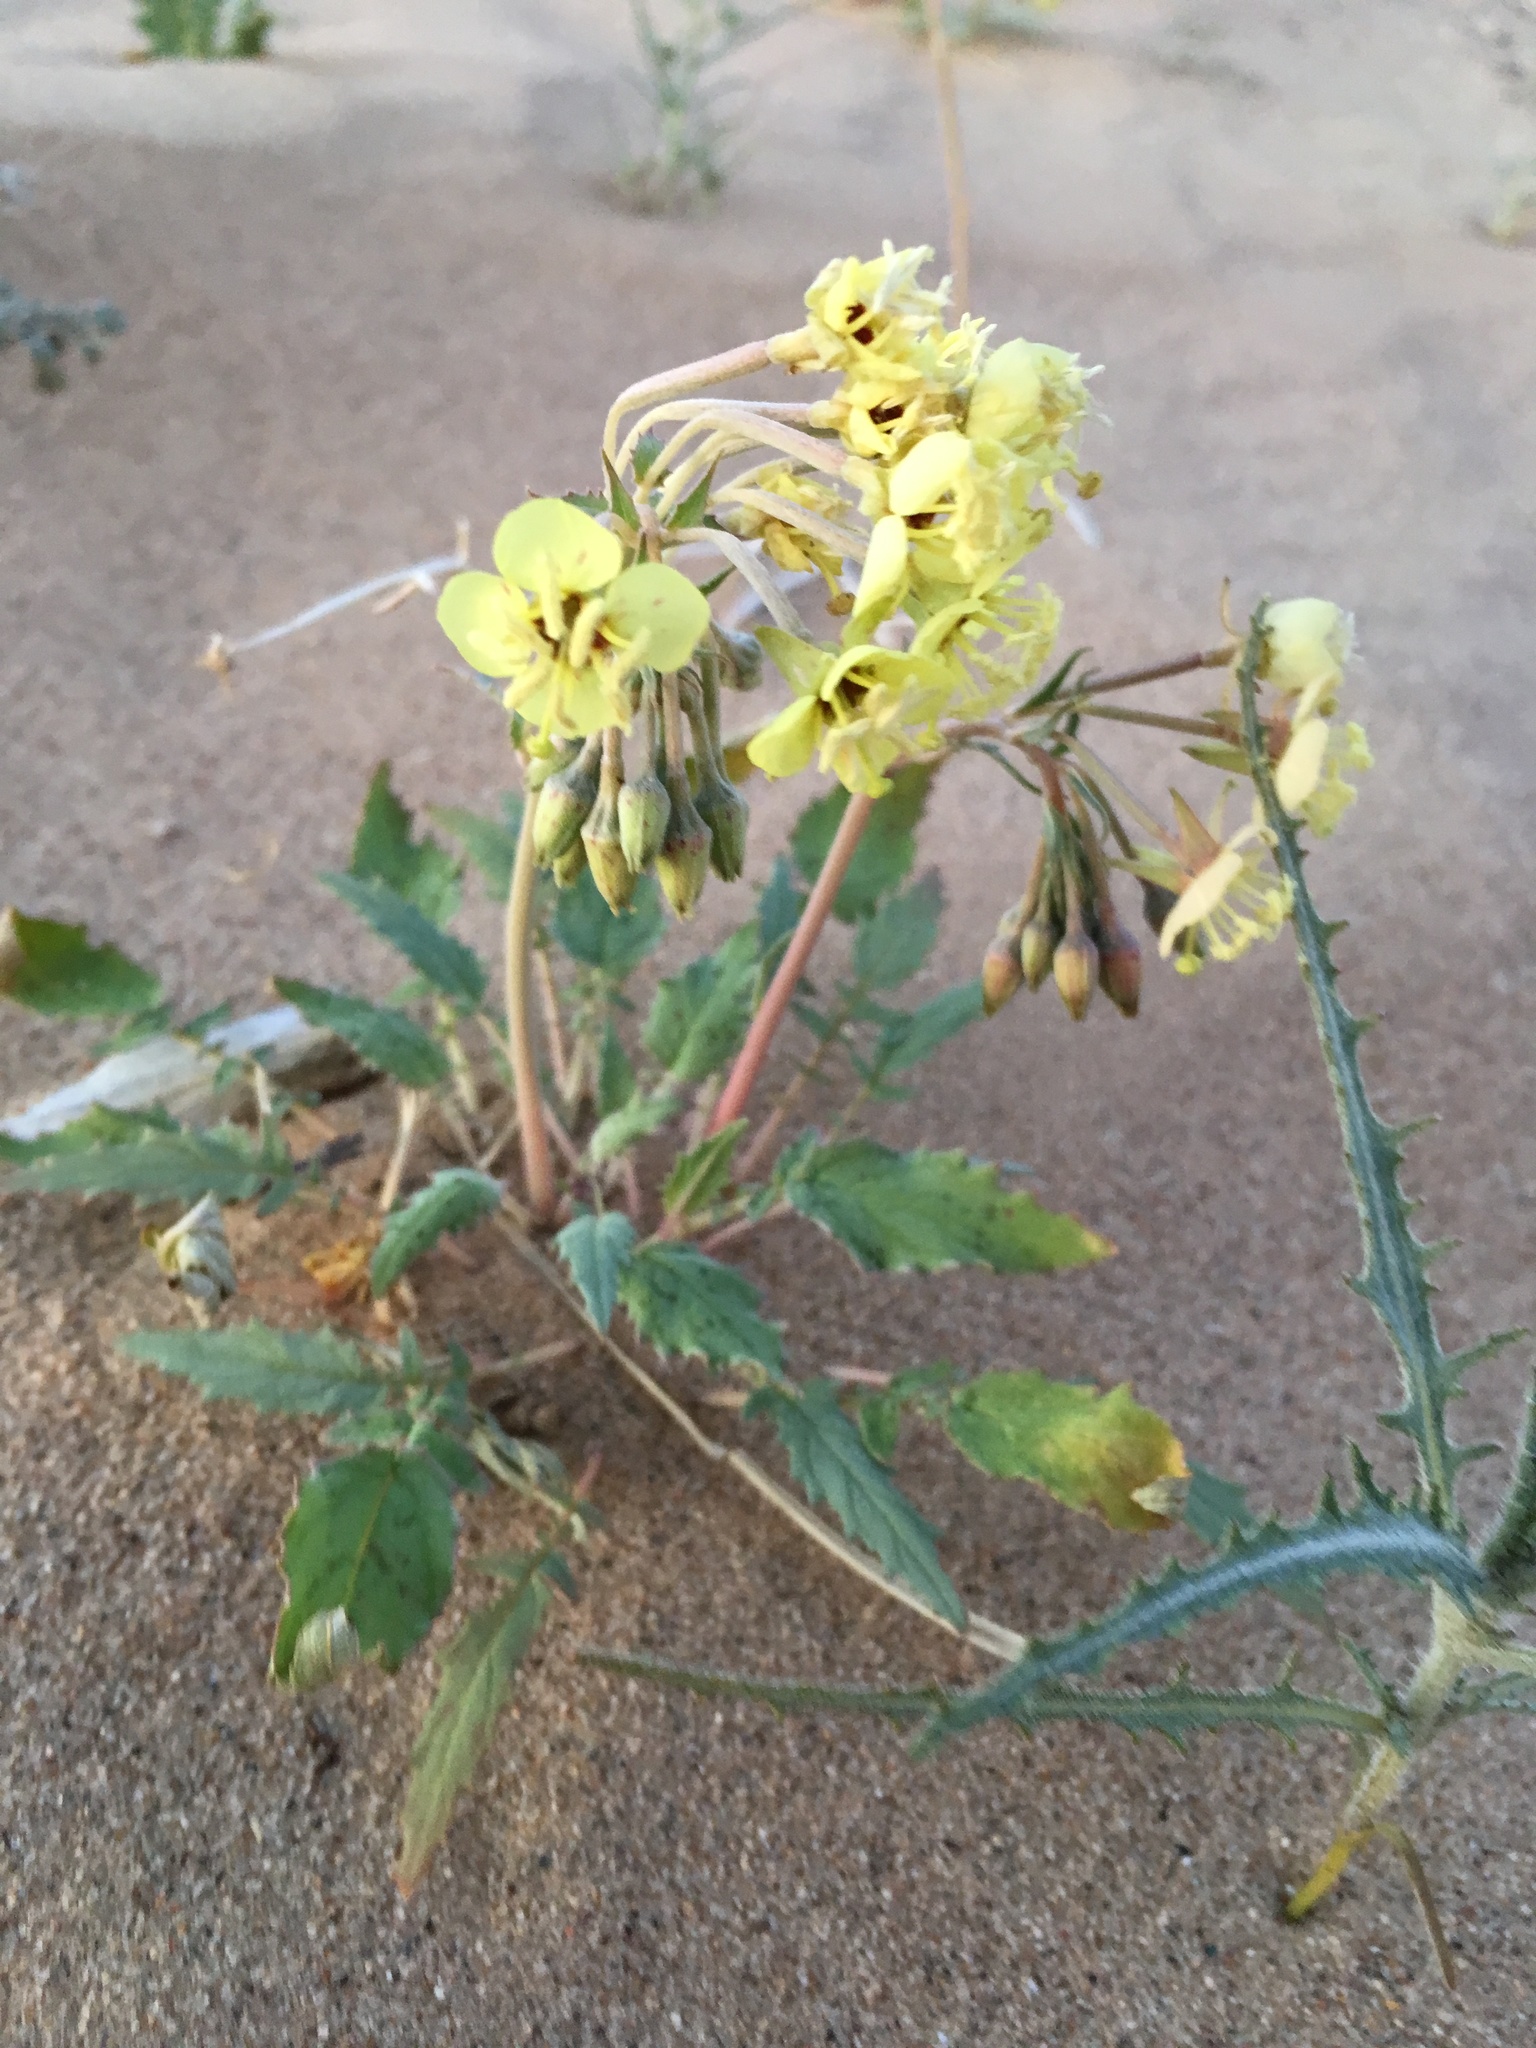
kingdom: Plantae
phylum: Tracheophyta
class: Magnoliopsida
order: Myrtales
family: Onagraceae
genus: Chylismia
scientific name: Chylismia claviformis
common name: Browneyes
